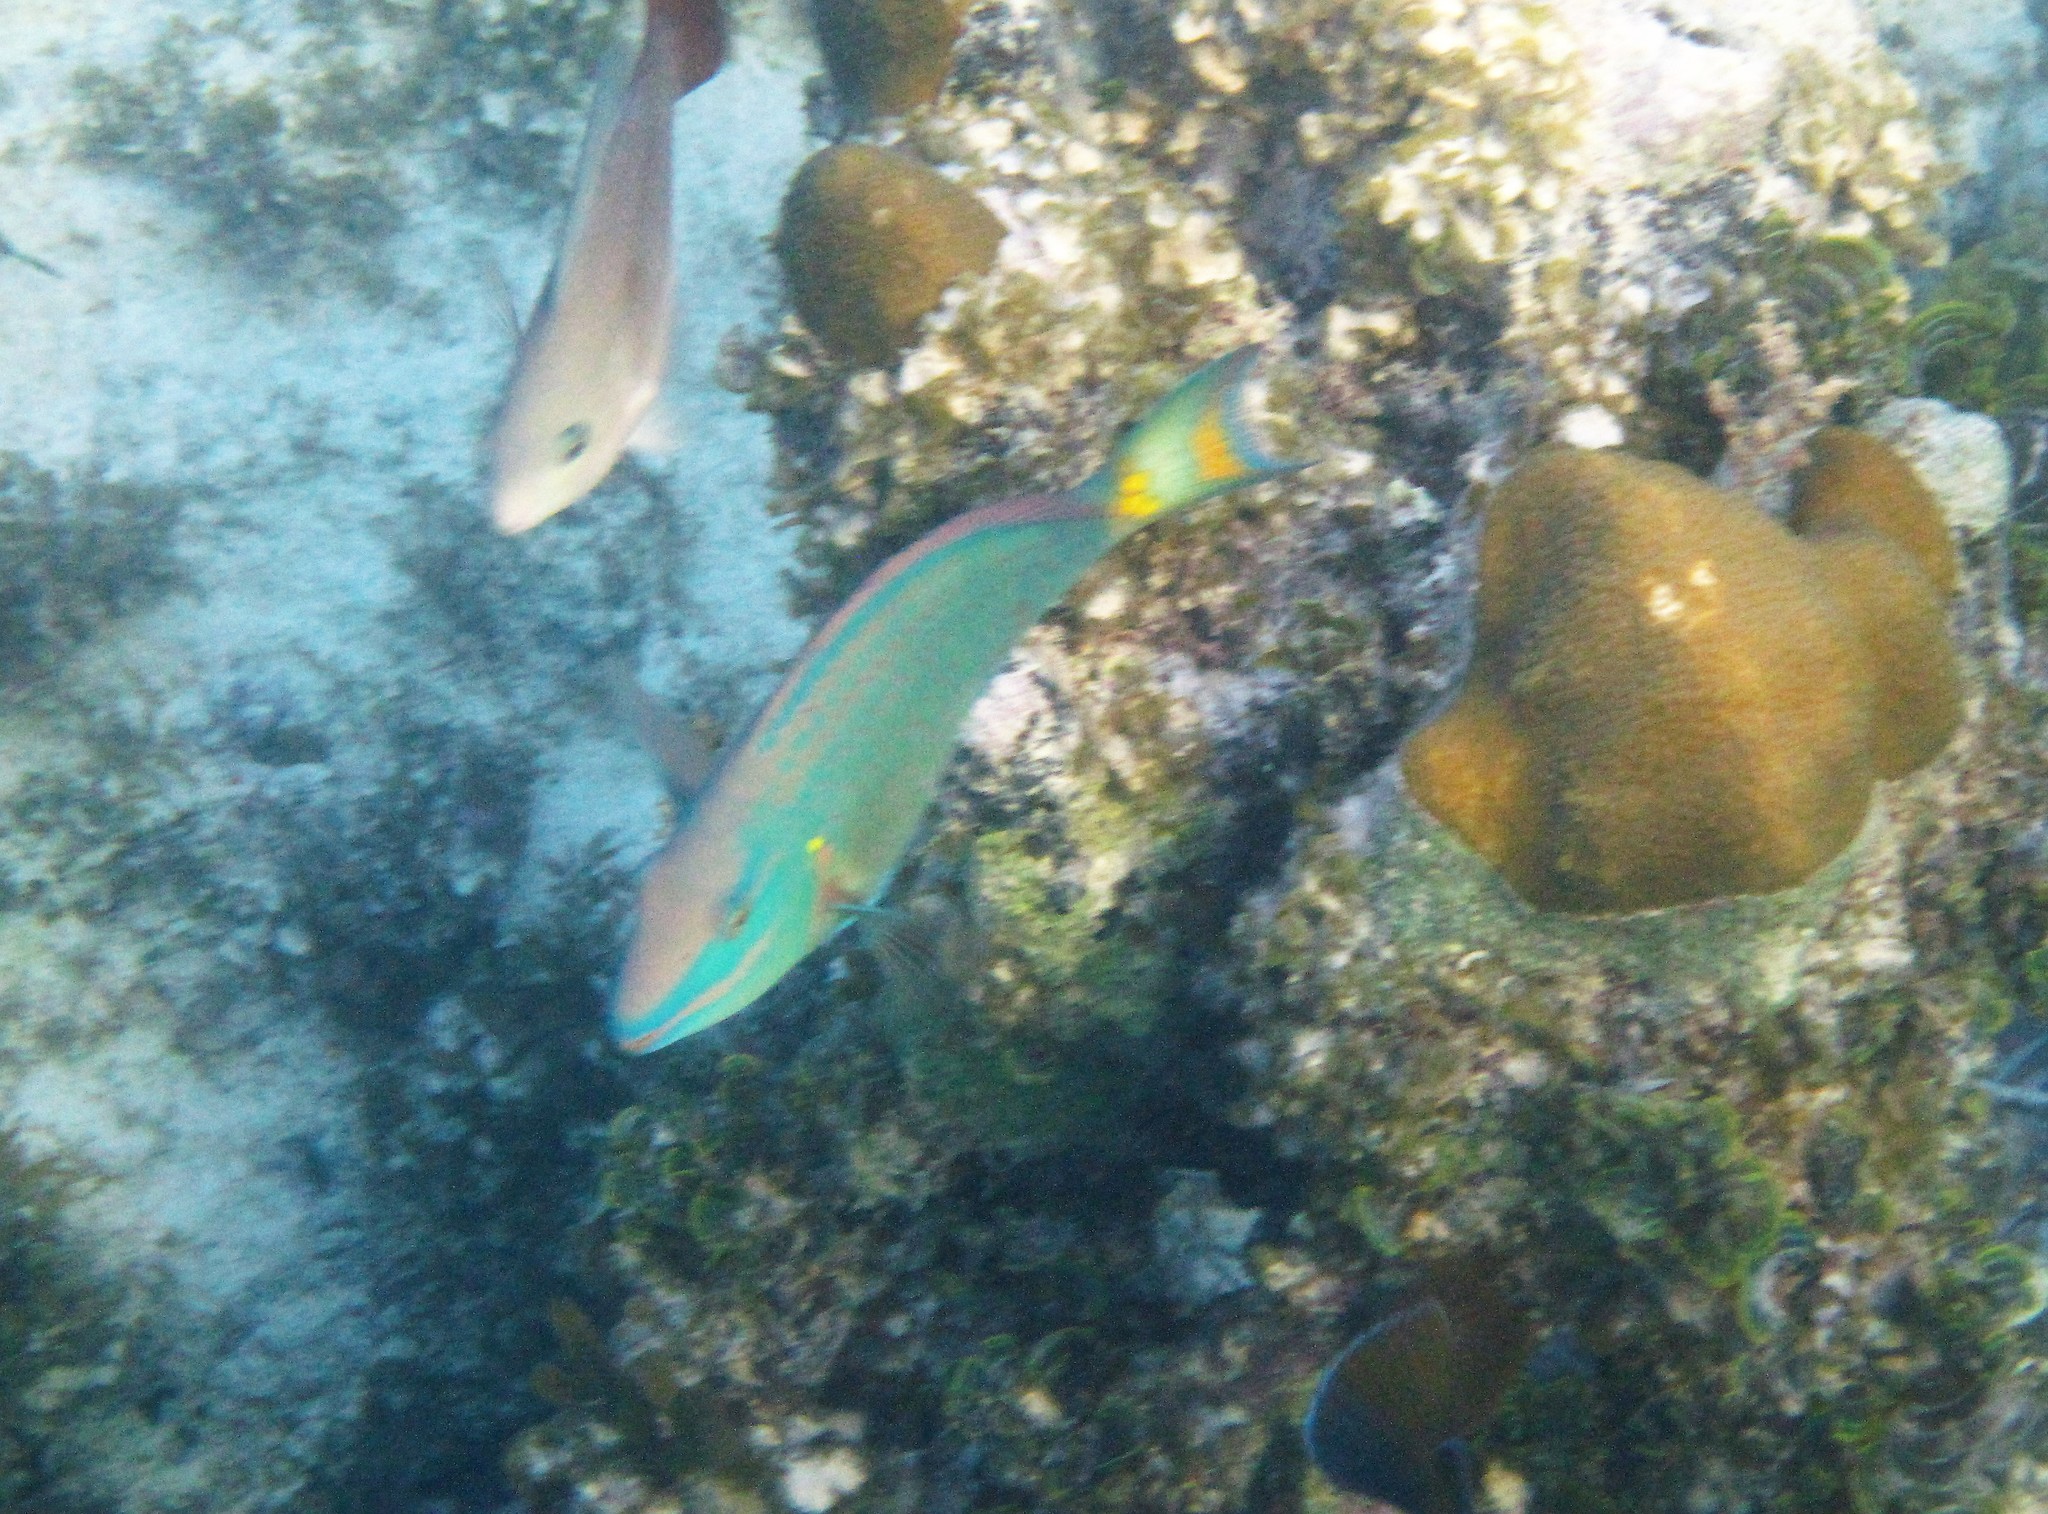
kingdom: Animalia
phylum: Chordata
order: Perciformes
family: Scaridae
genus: Sparisoma
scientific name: Sparisoma viride
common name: Stoplight parrotfish
